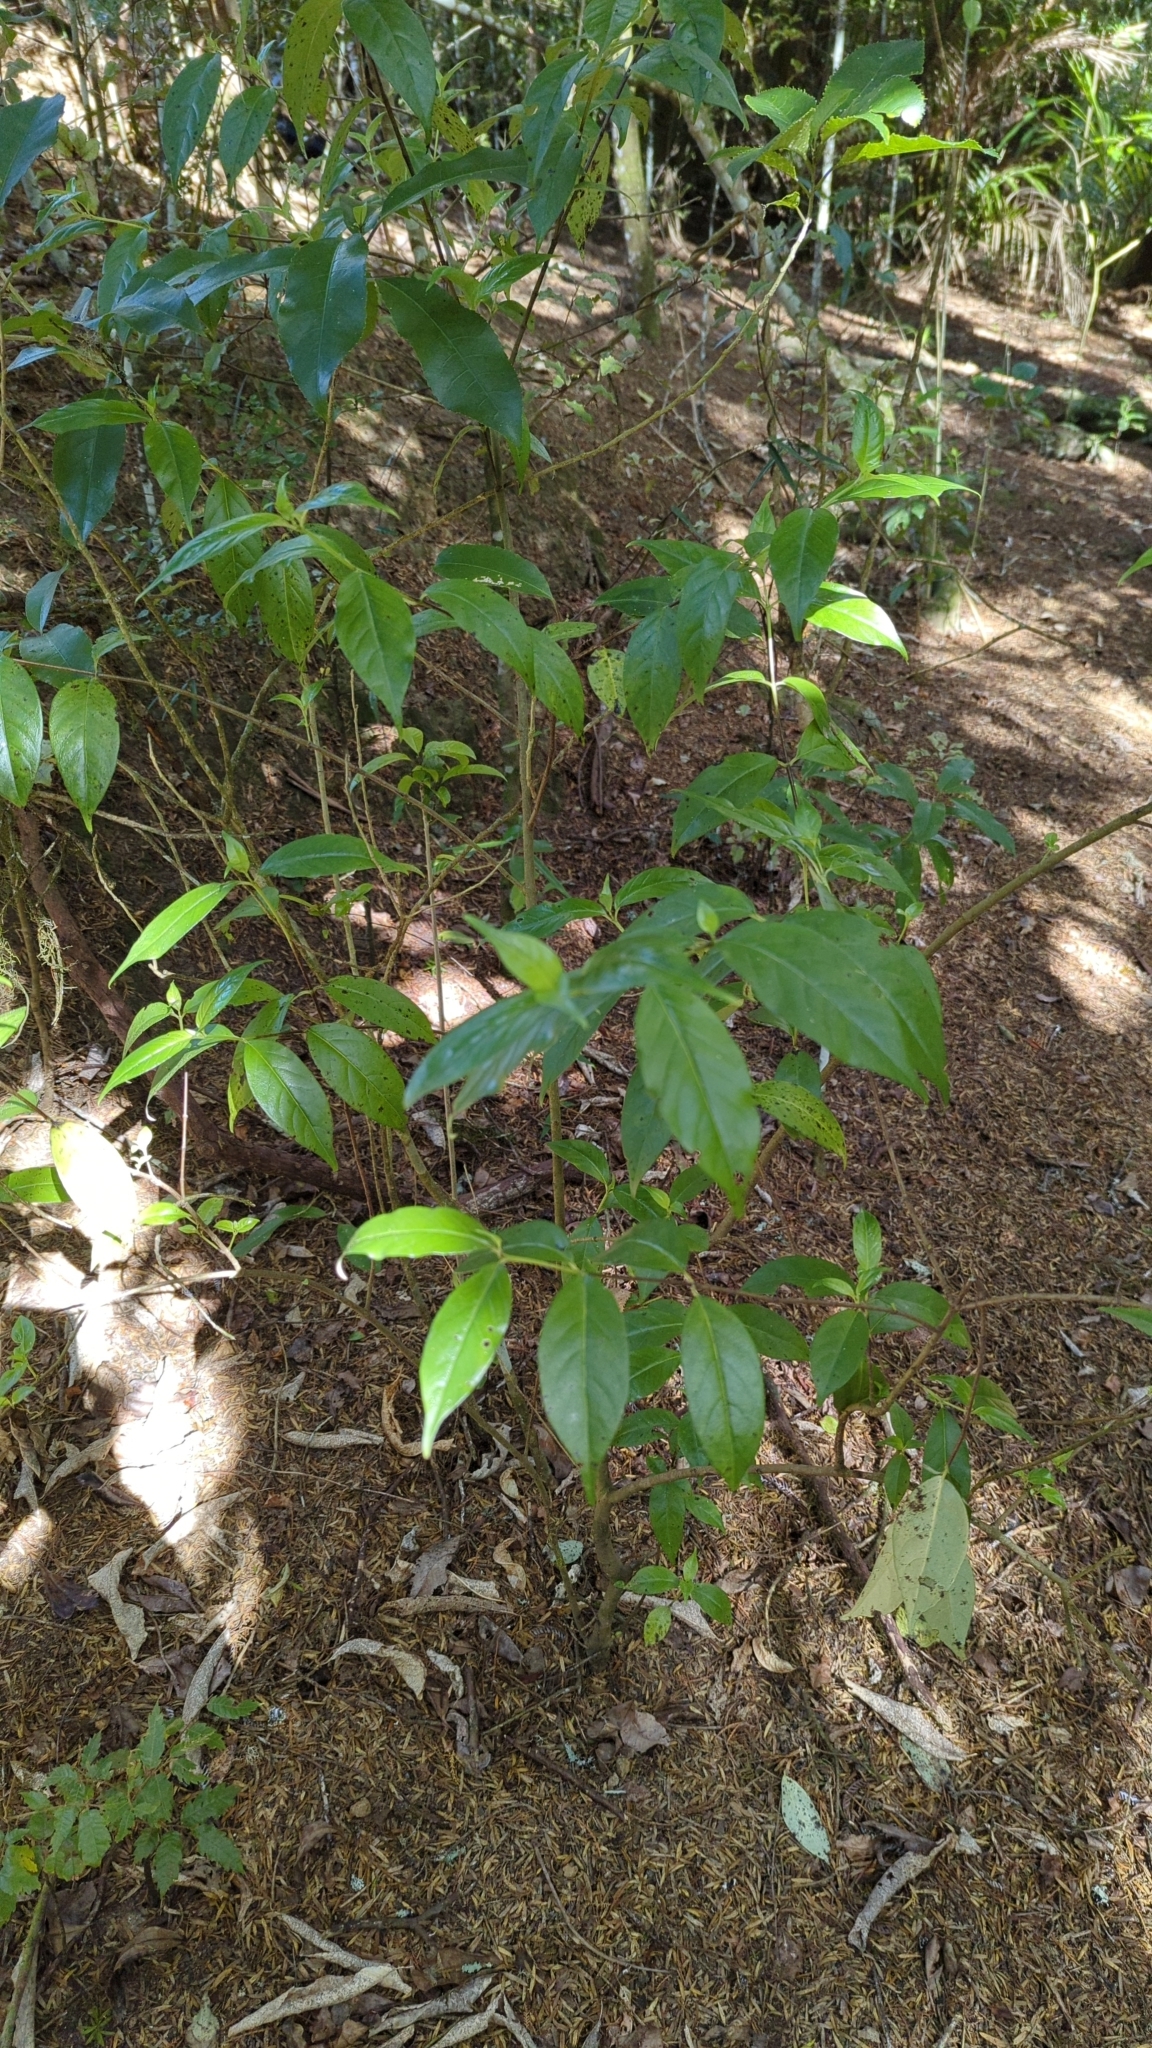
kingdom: Plantae
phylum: Tracheophyta
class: Magnoliopsida
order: Gentianales
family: Loganiaceae
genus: Geniostoma
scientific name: Geniostoma ligustrifolium
